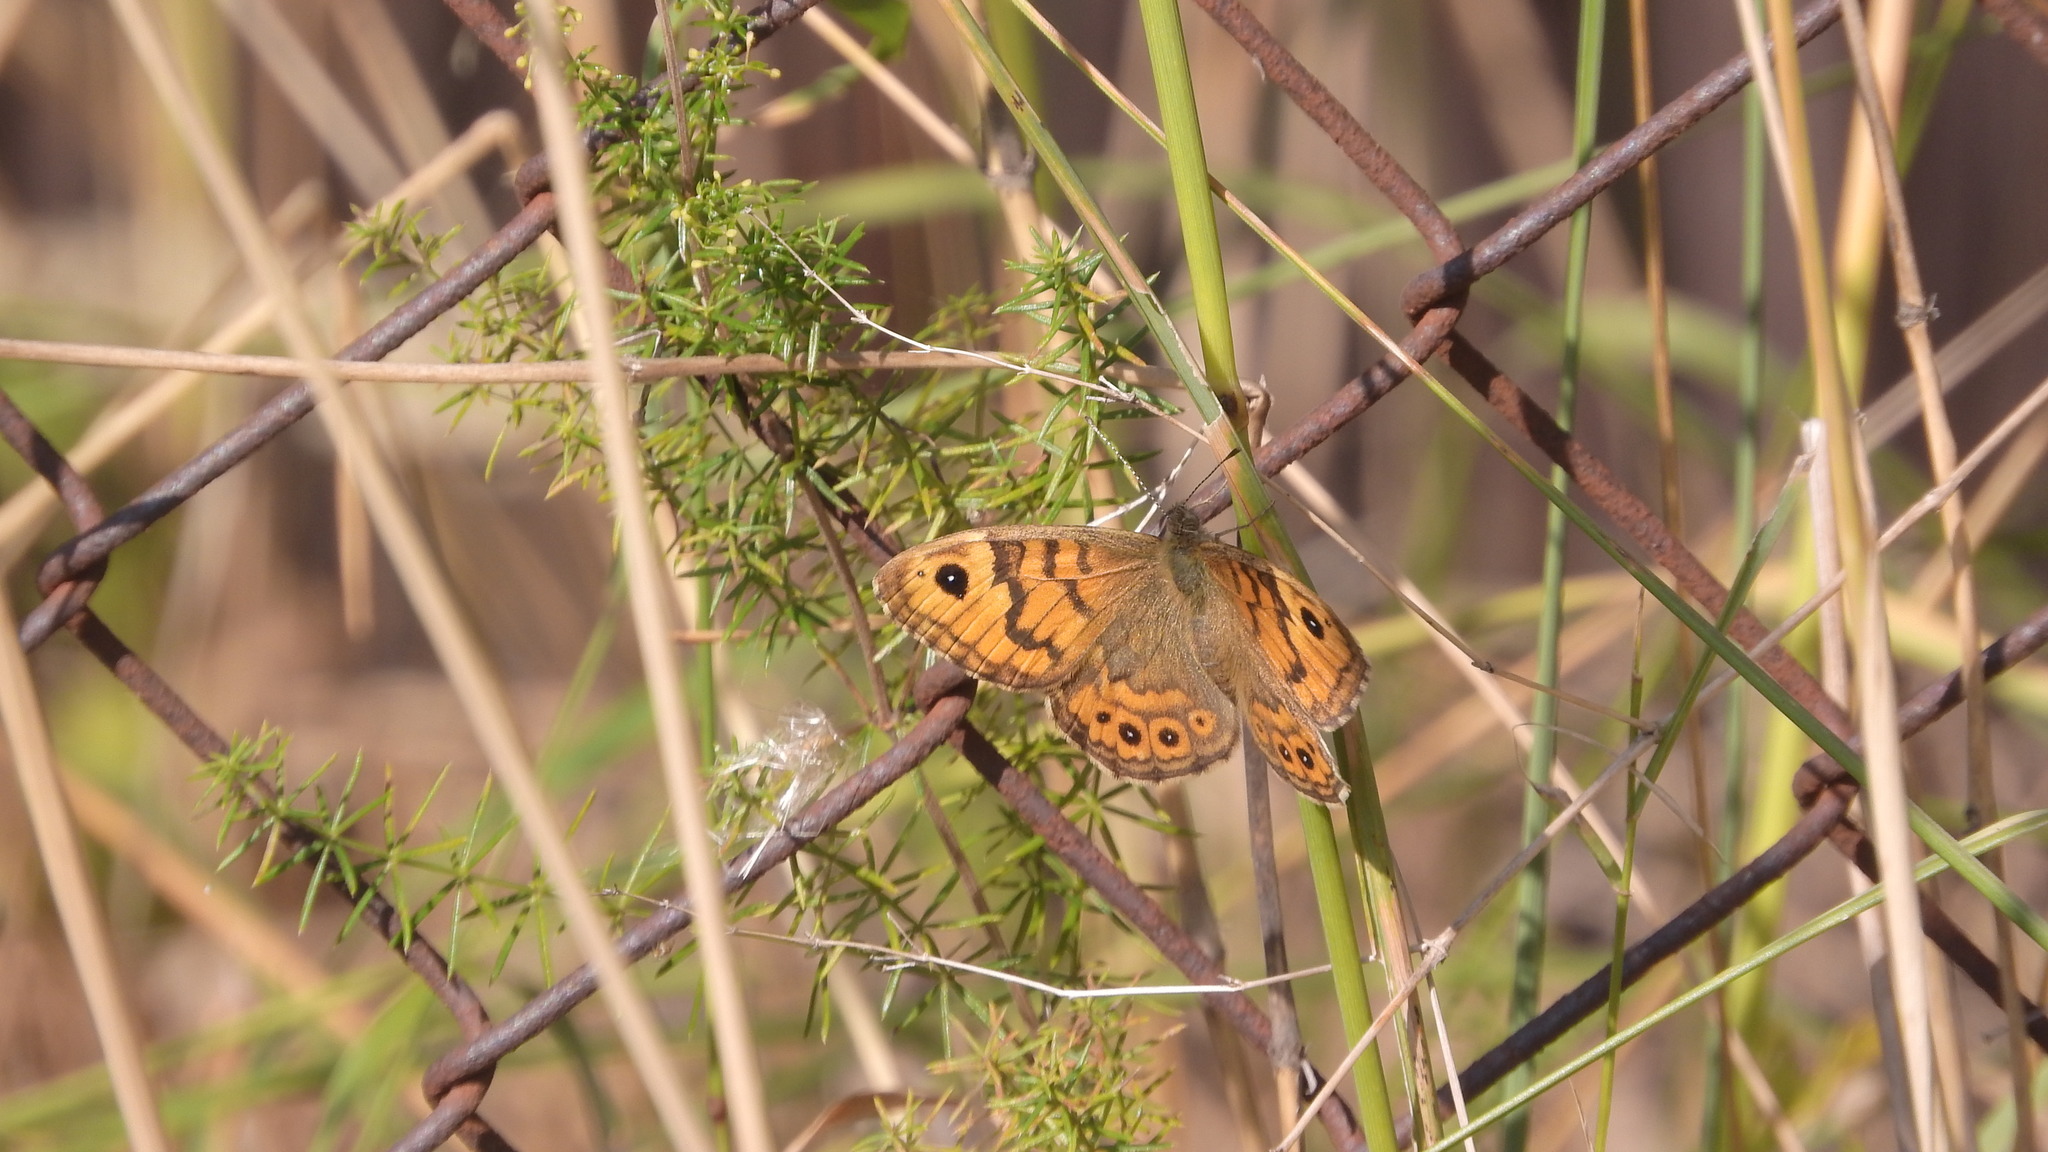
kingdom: Animalia
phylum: Arthropoda
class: Insecta
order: Lepidoptera
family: Nymphalidae
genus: Pararge
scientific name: Pararge Lasiommata megera
